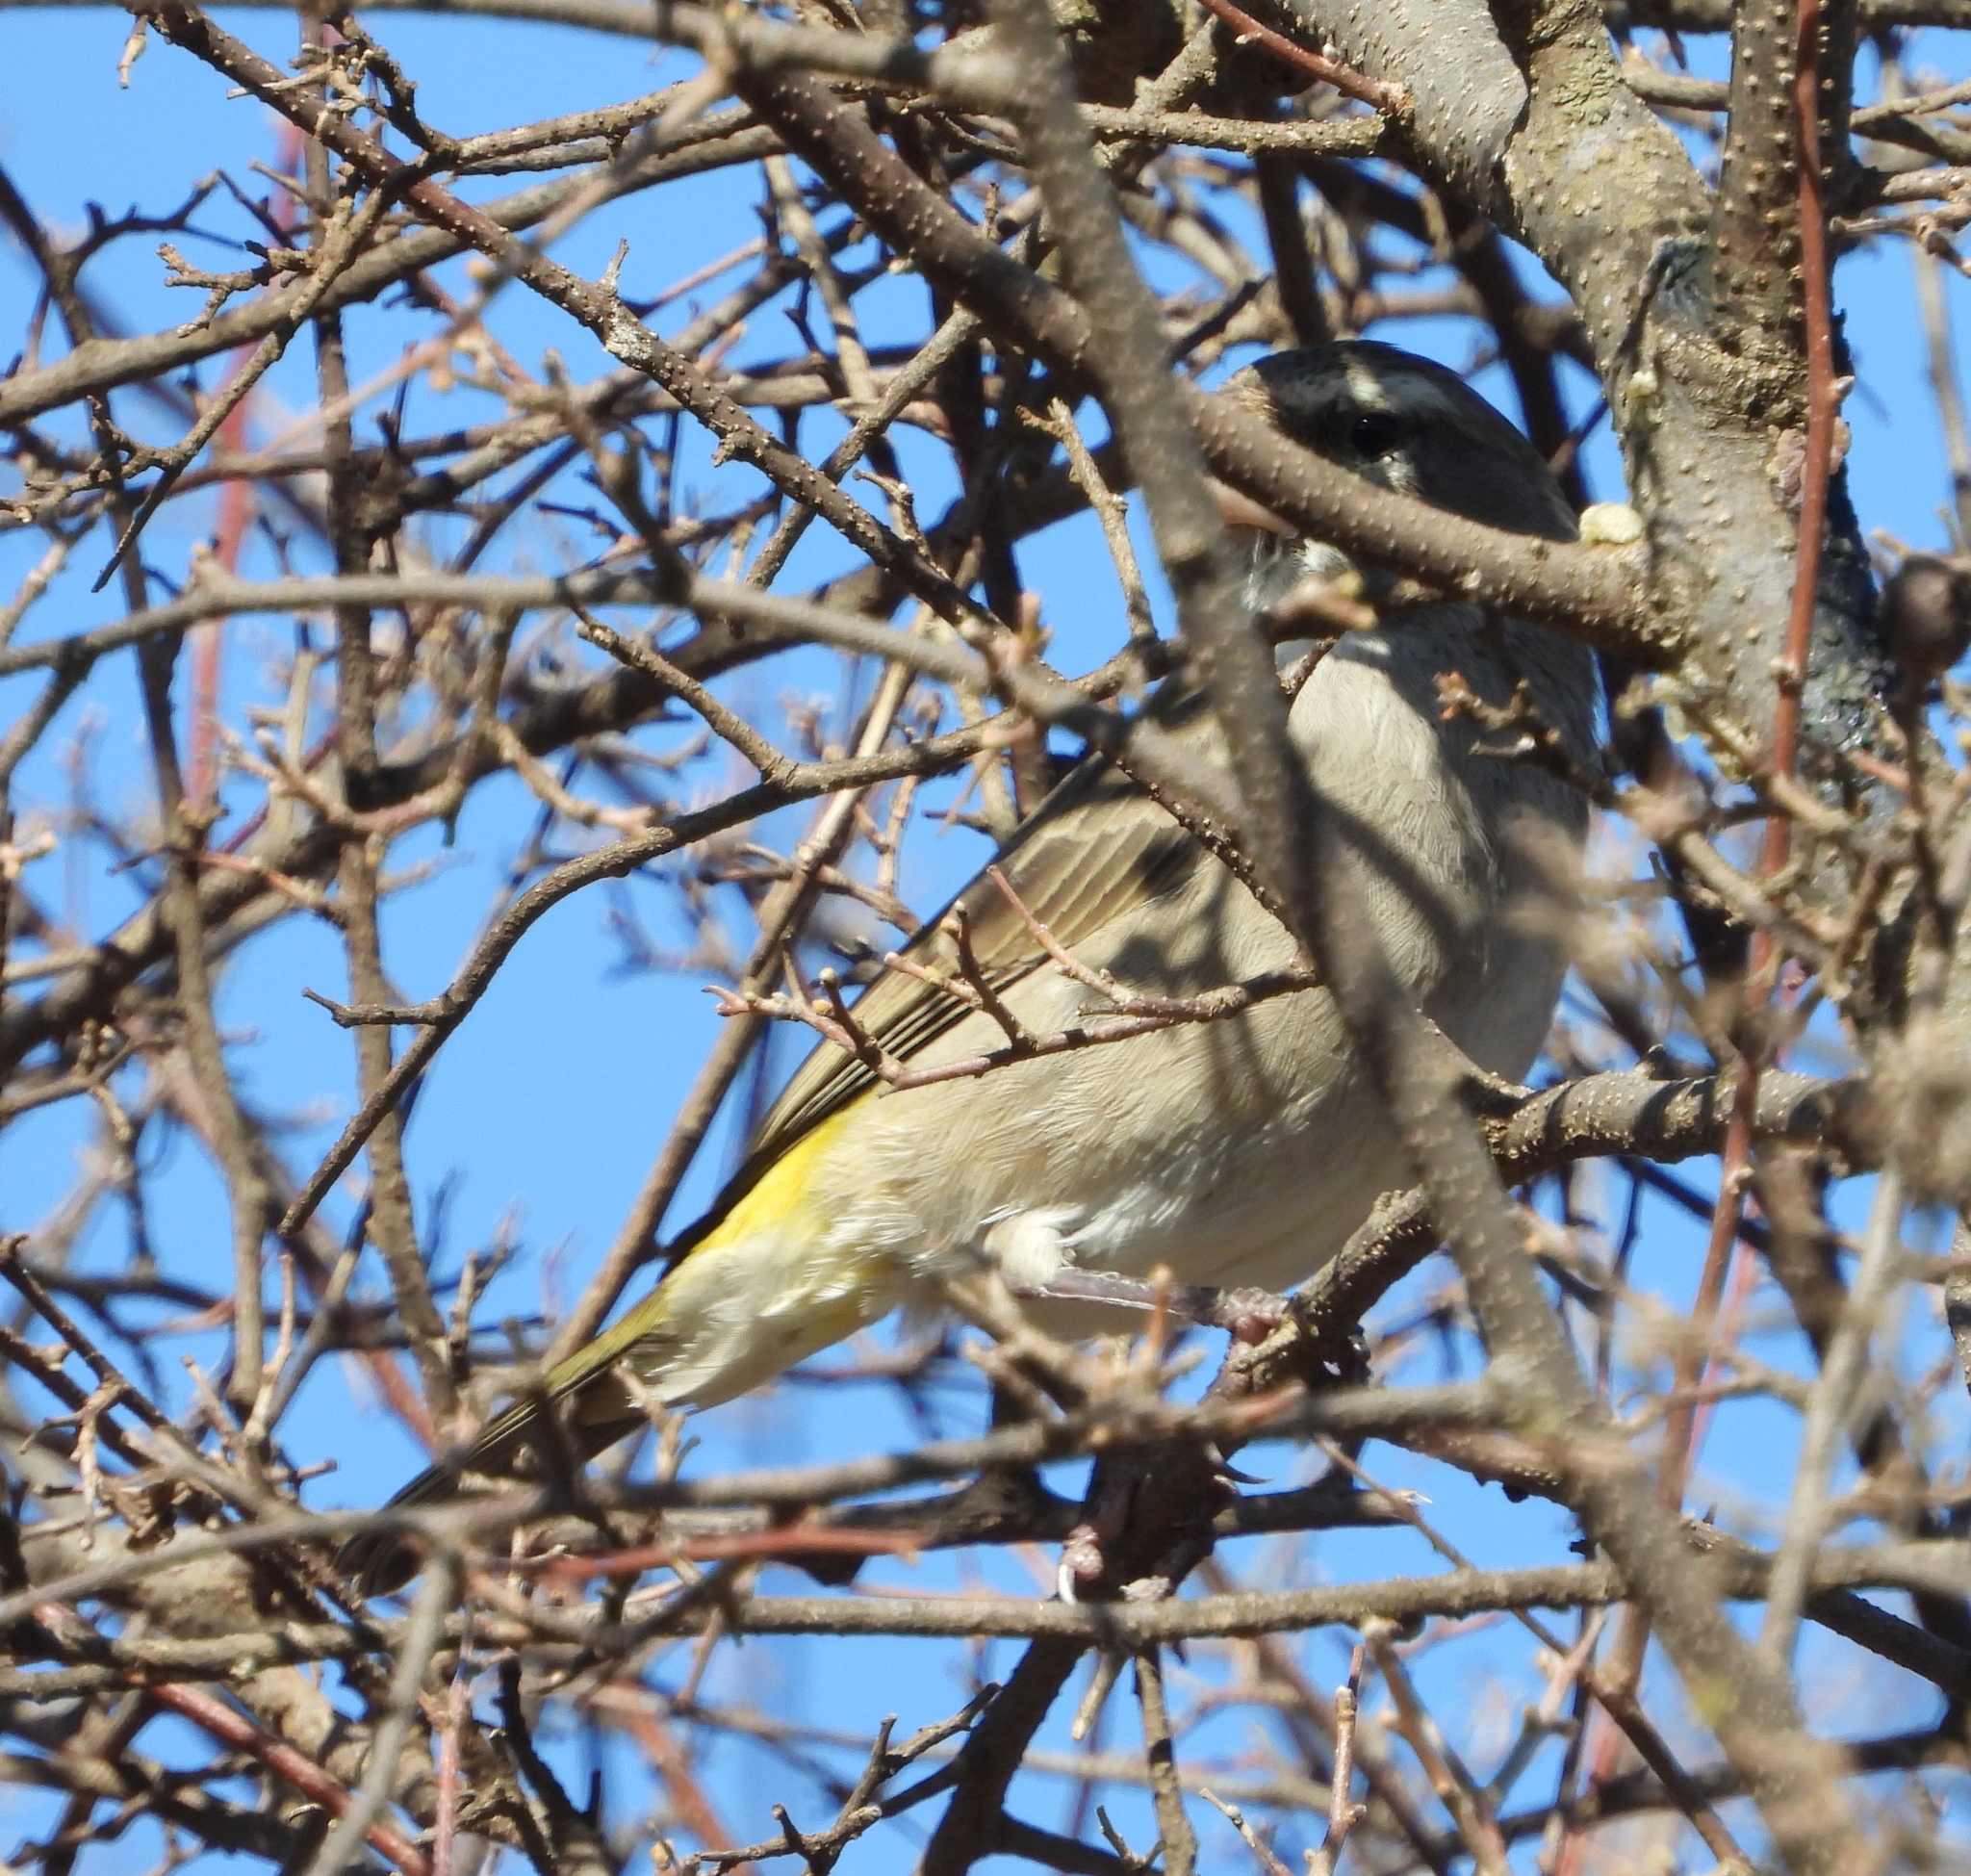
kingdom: Animalia
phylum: Chordata
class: Aves
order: Passeriformes
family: Fringillidae
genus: Crithagra
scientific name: Crithagra albogularis
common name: White-throated canary
